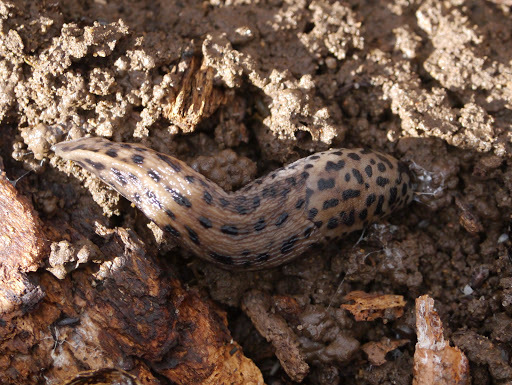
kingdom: Animalia
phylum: Mollusca
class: Gastropoda
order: Stylommatophora
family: Limacidae
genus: Limax
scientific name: Limax maximus
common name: Great grey slug
